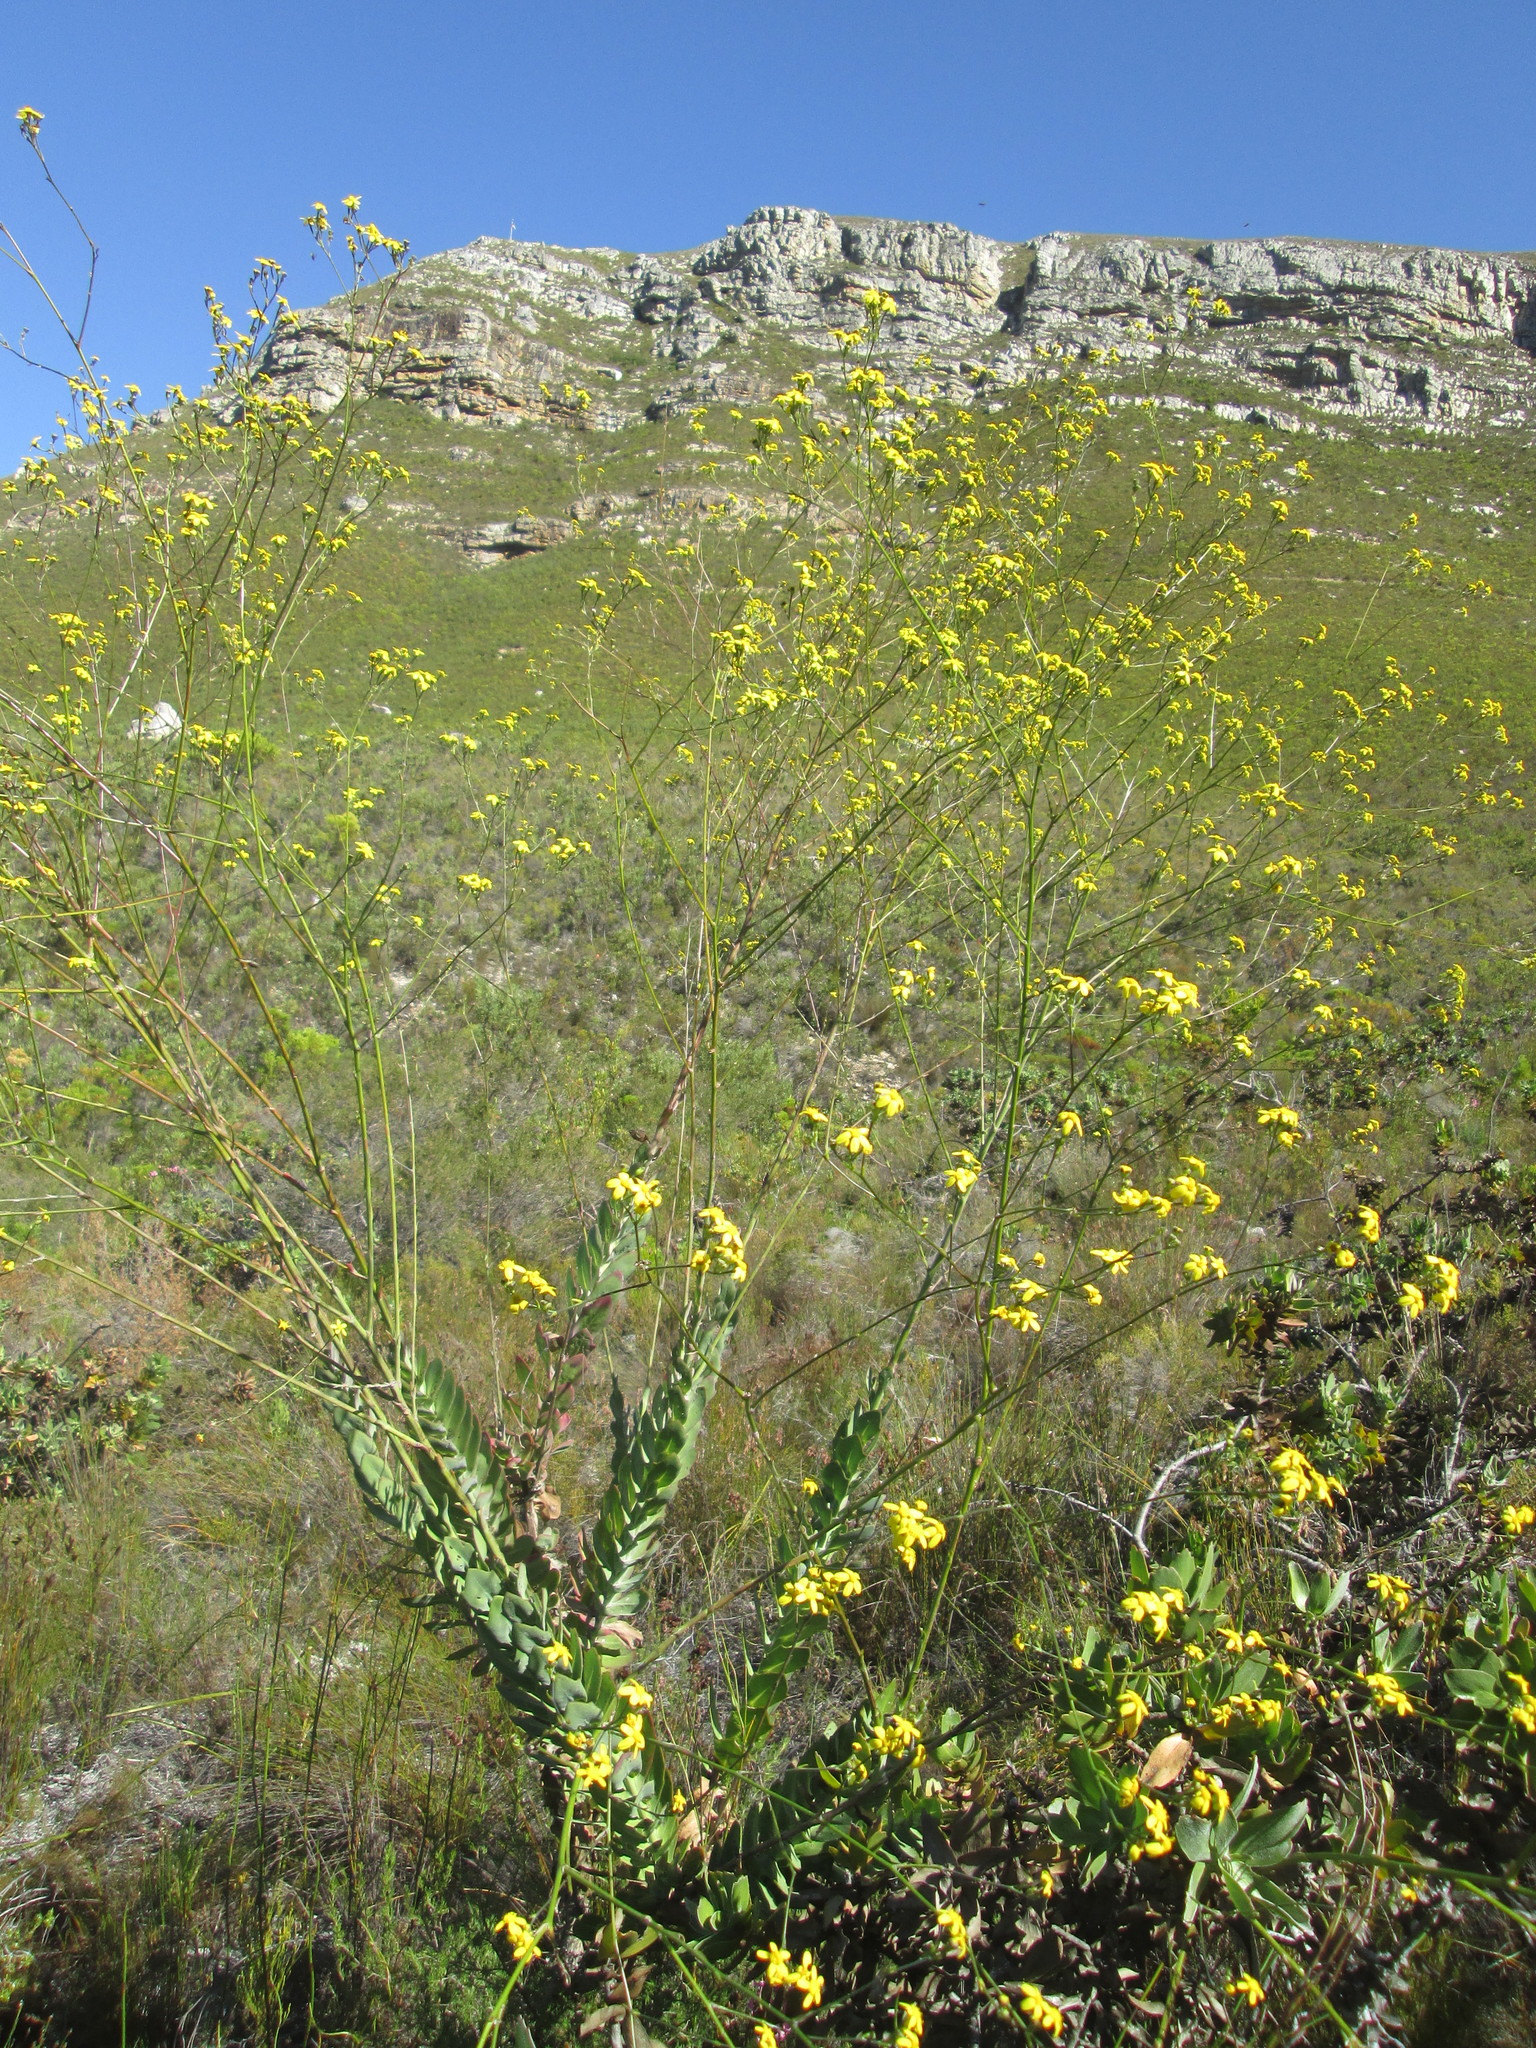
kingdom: Plantae
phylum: Tracheophyta
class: Magnoliopsida
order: Asterales
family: Asteraceae
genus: Othonna
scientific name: Othonna quinquedentata
